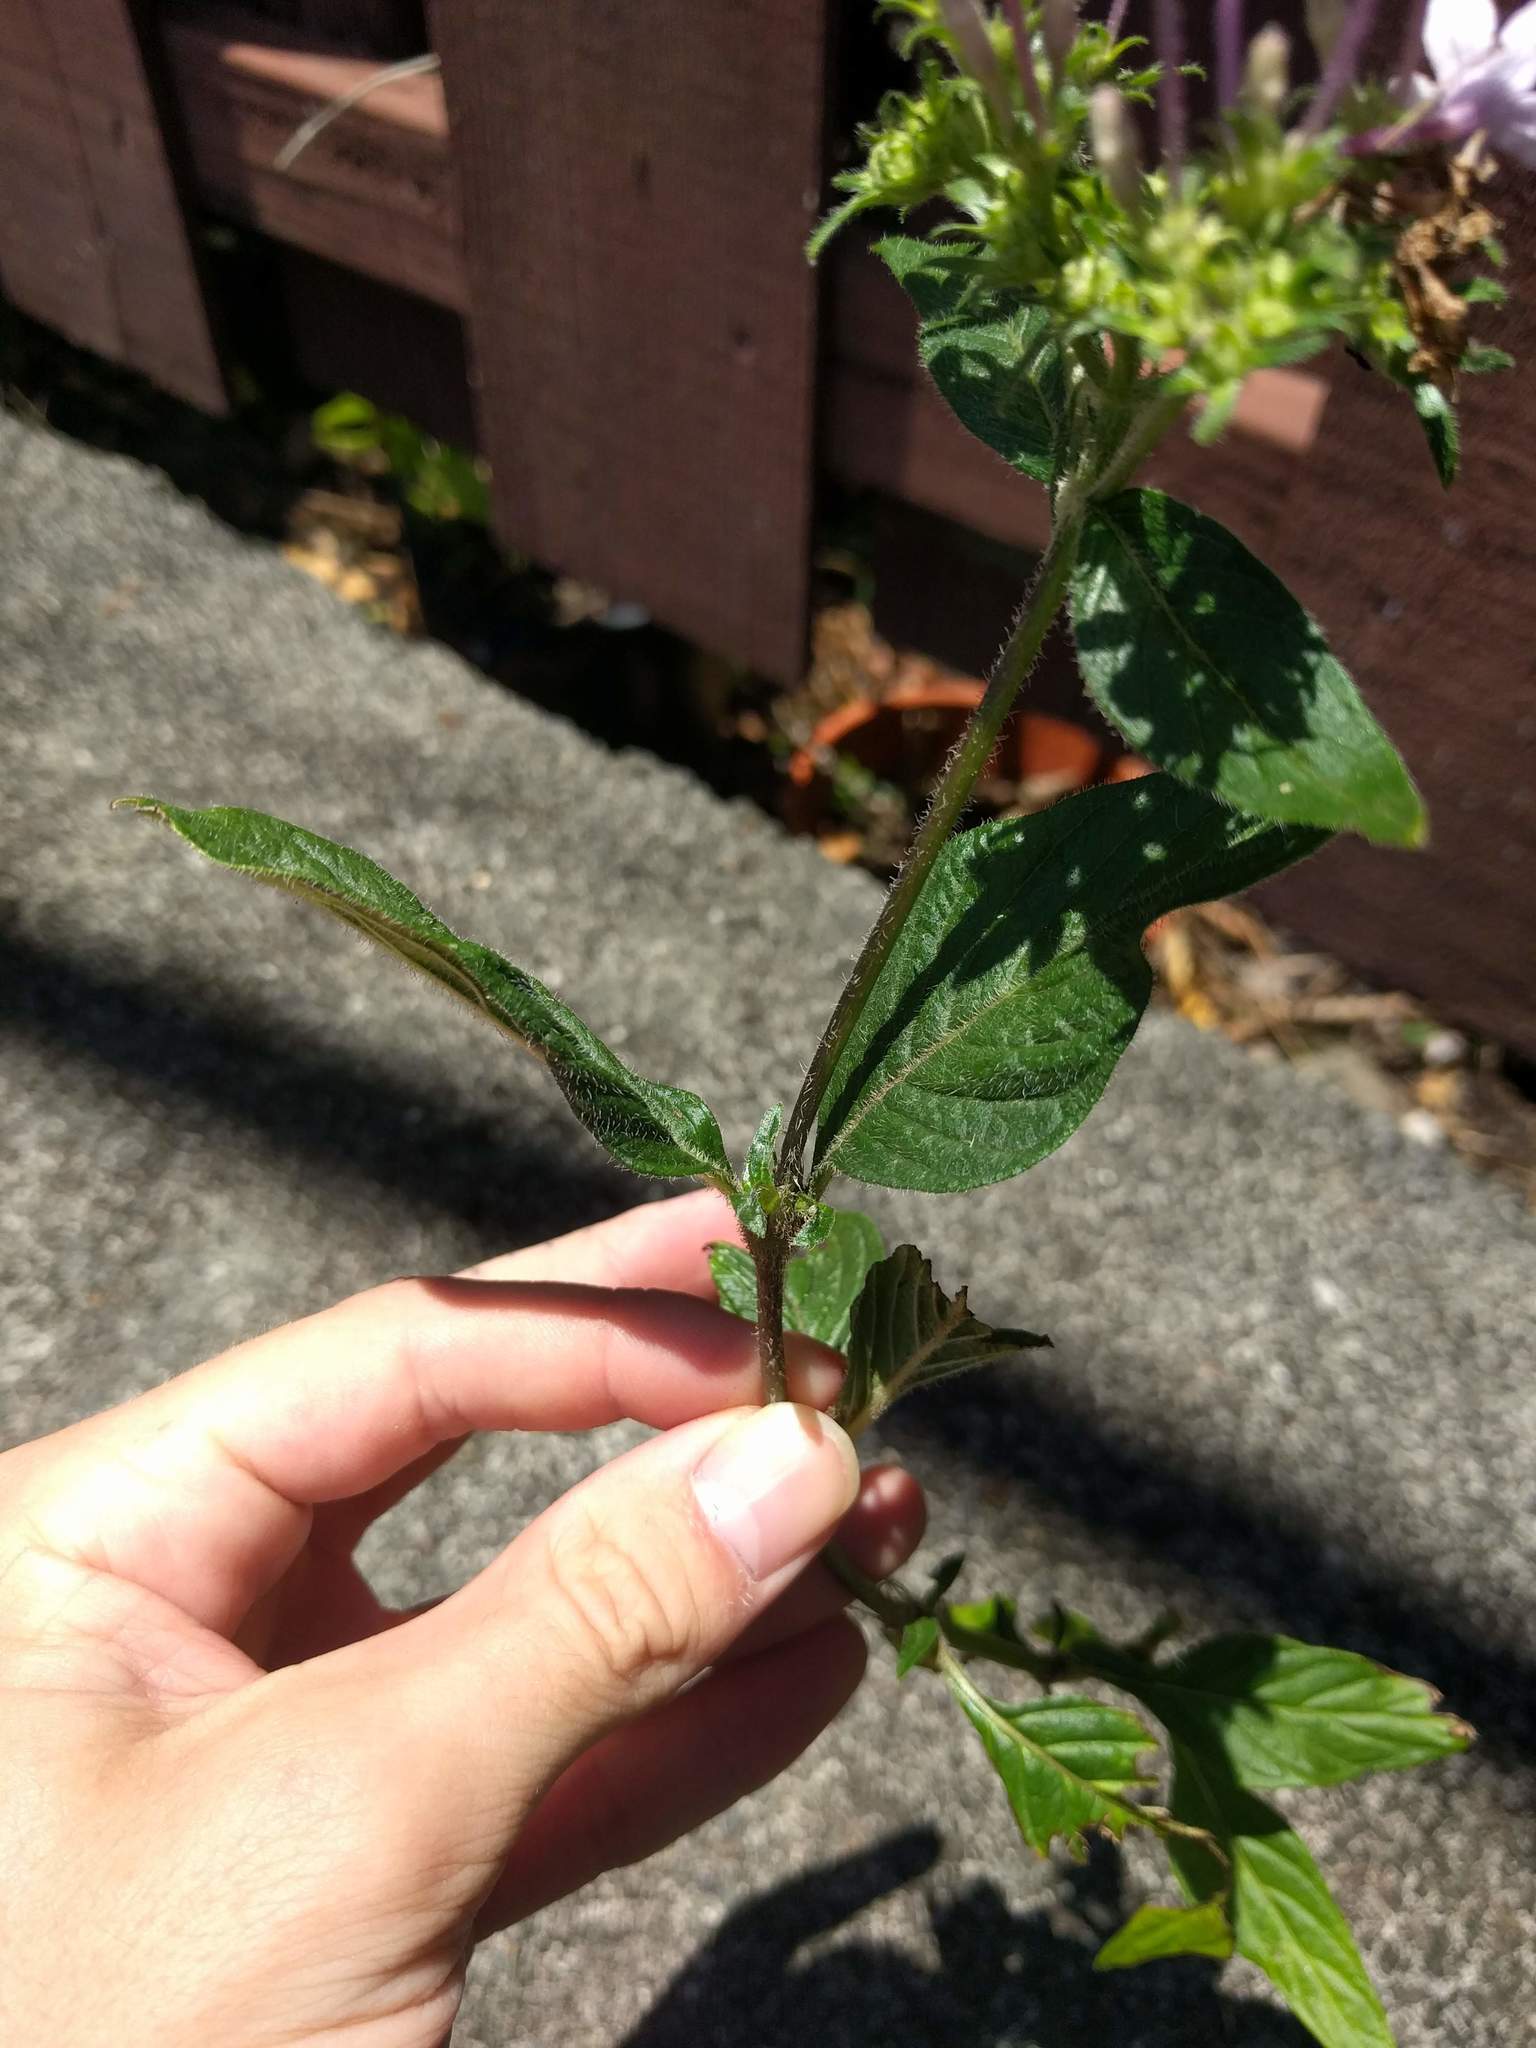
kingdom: Plantae
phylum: Tracheophyta
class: Magnoliopsida
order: Gentianales
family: Rubiaceae
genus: Pentas
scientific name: Pentas lanceolata
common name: Egyptian starcluster
